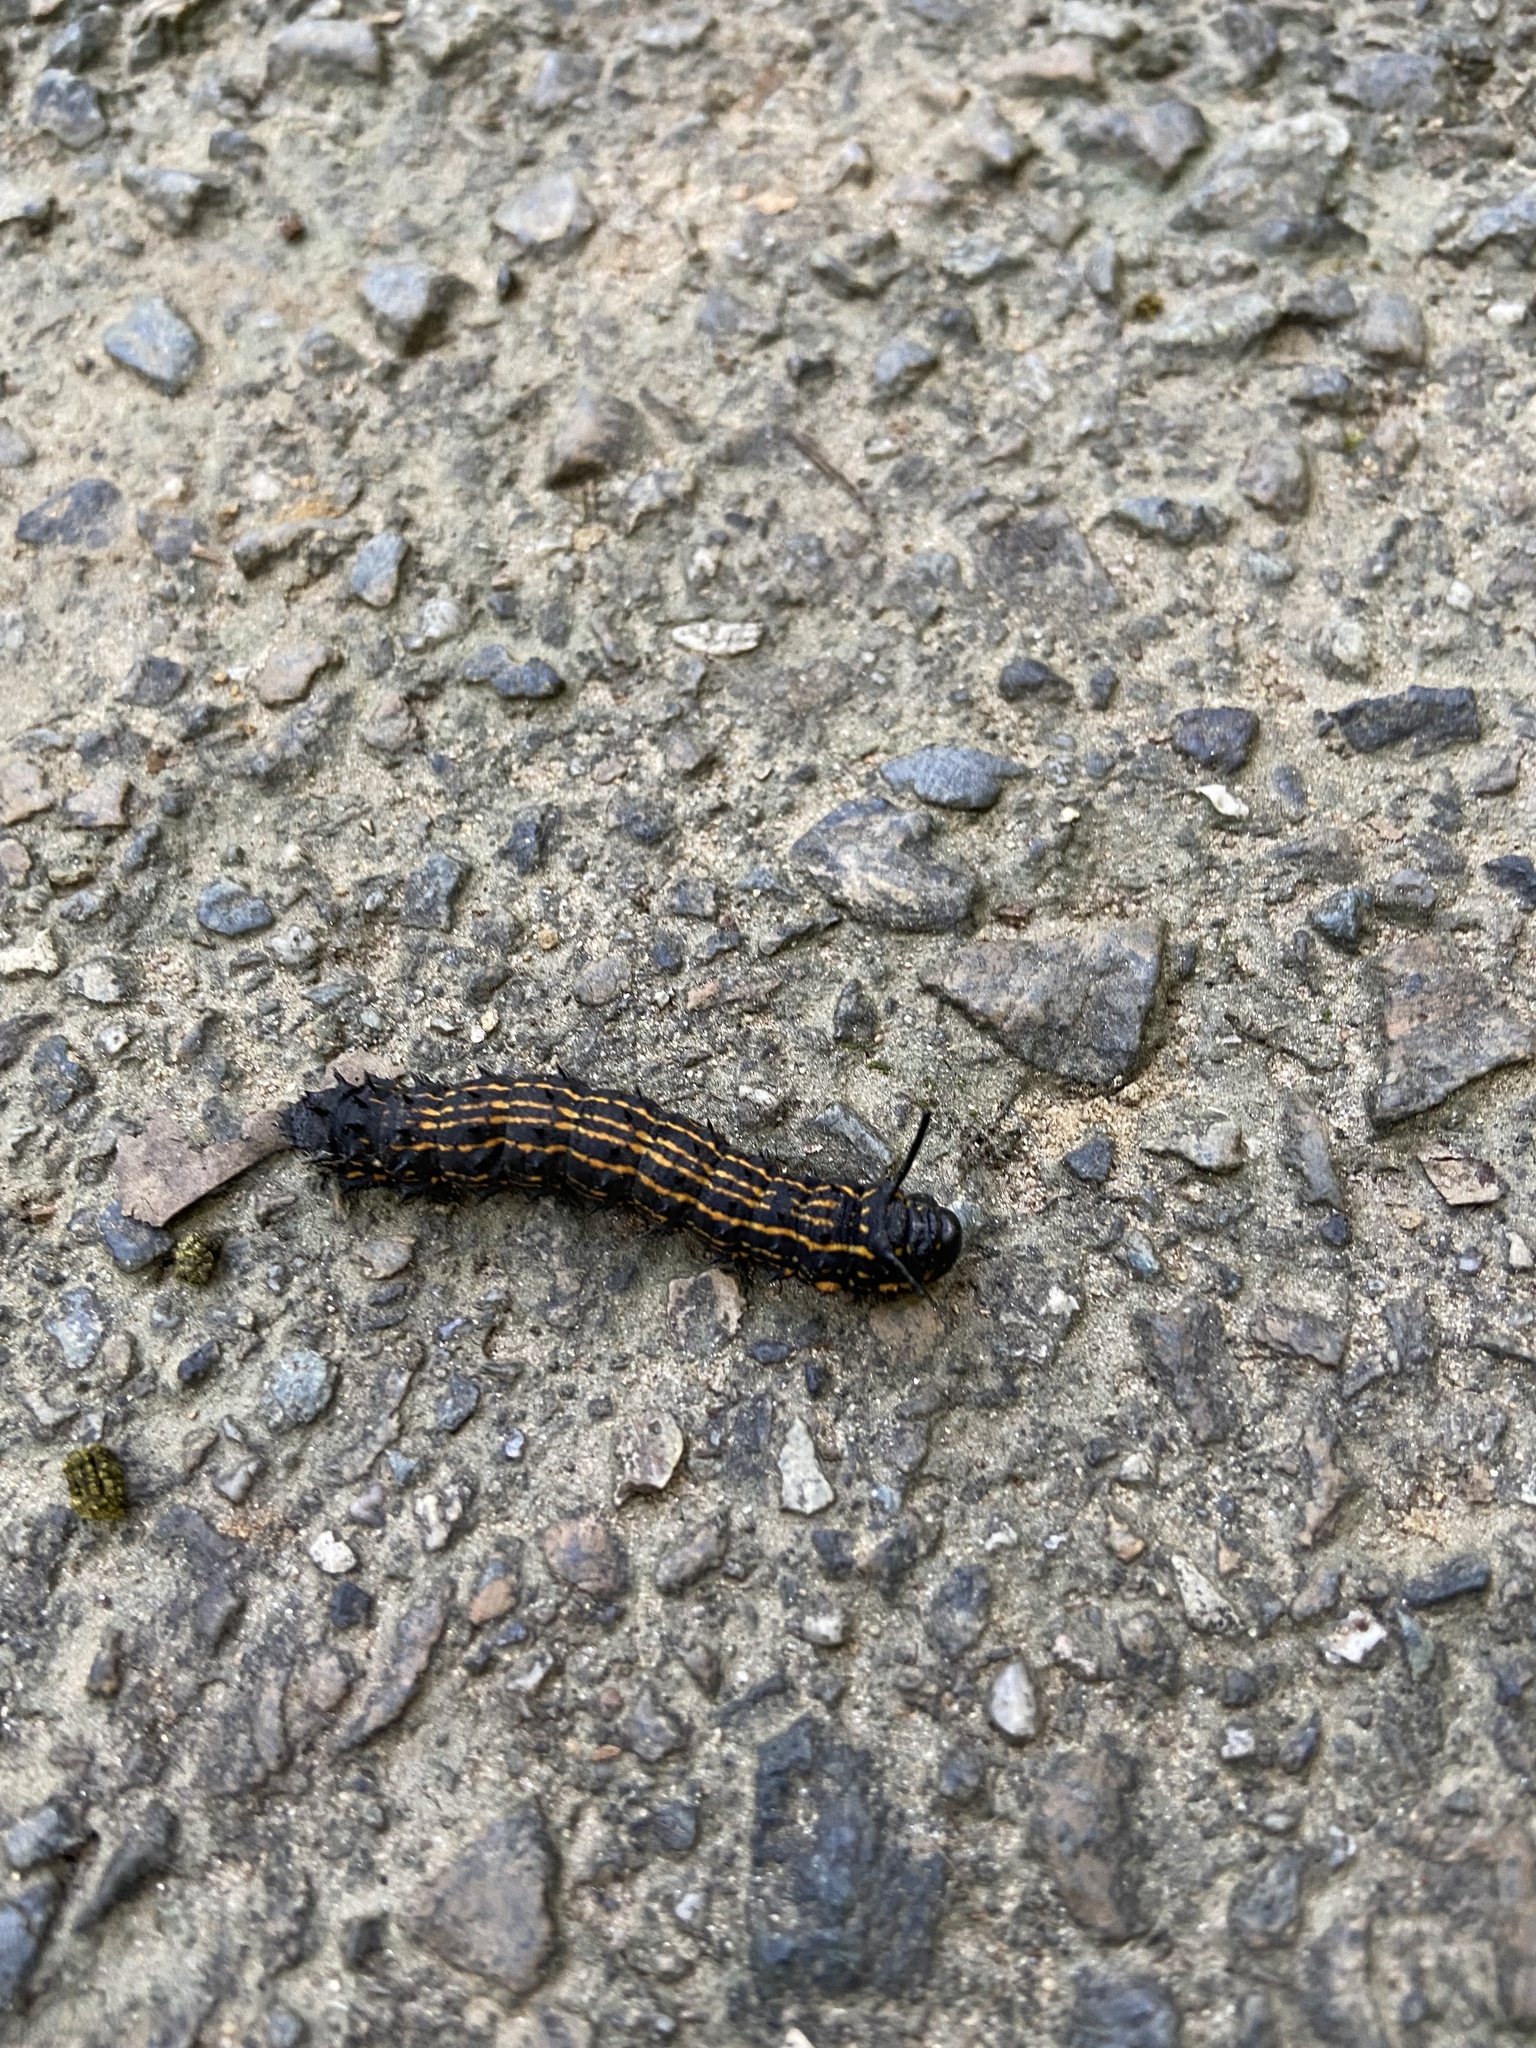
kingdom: Animalia
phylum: Arthropoda
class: Insecta
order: Lepidoptera
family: Saturniidae
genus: Anisota
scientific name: Anisota senatoria
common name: Orange-striped oakworm moth
